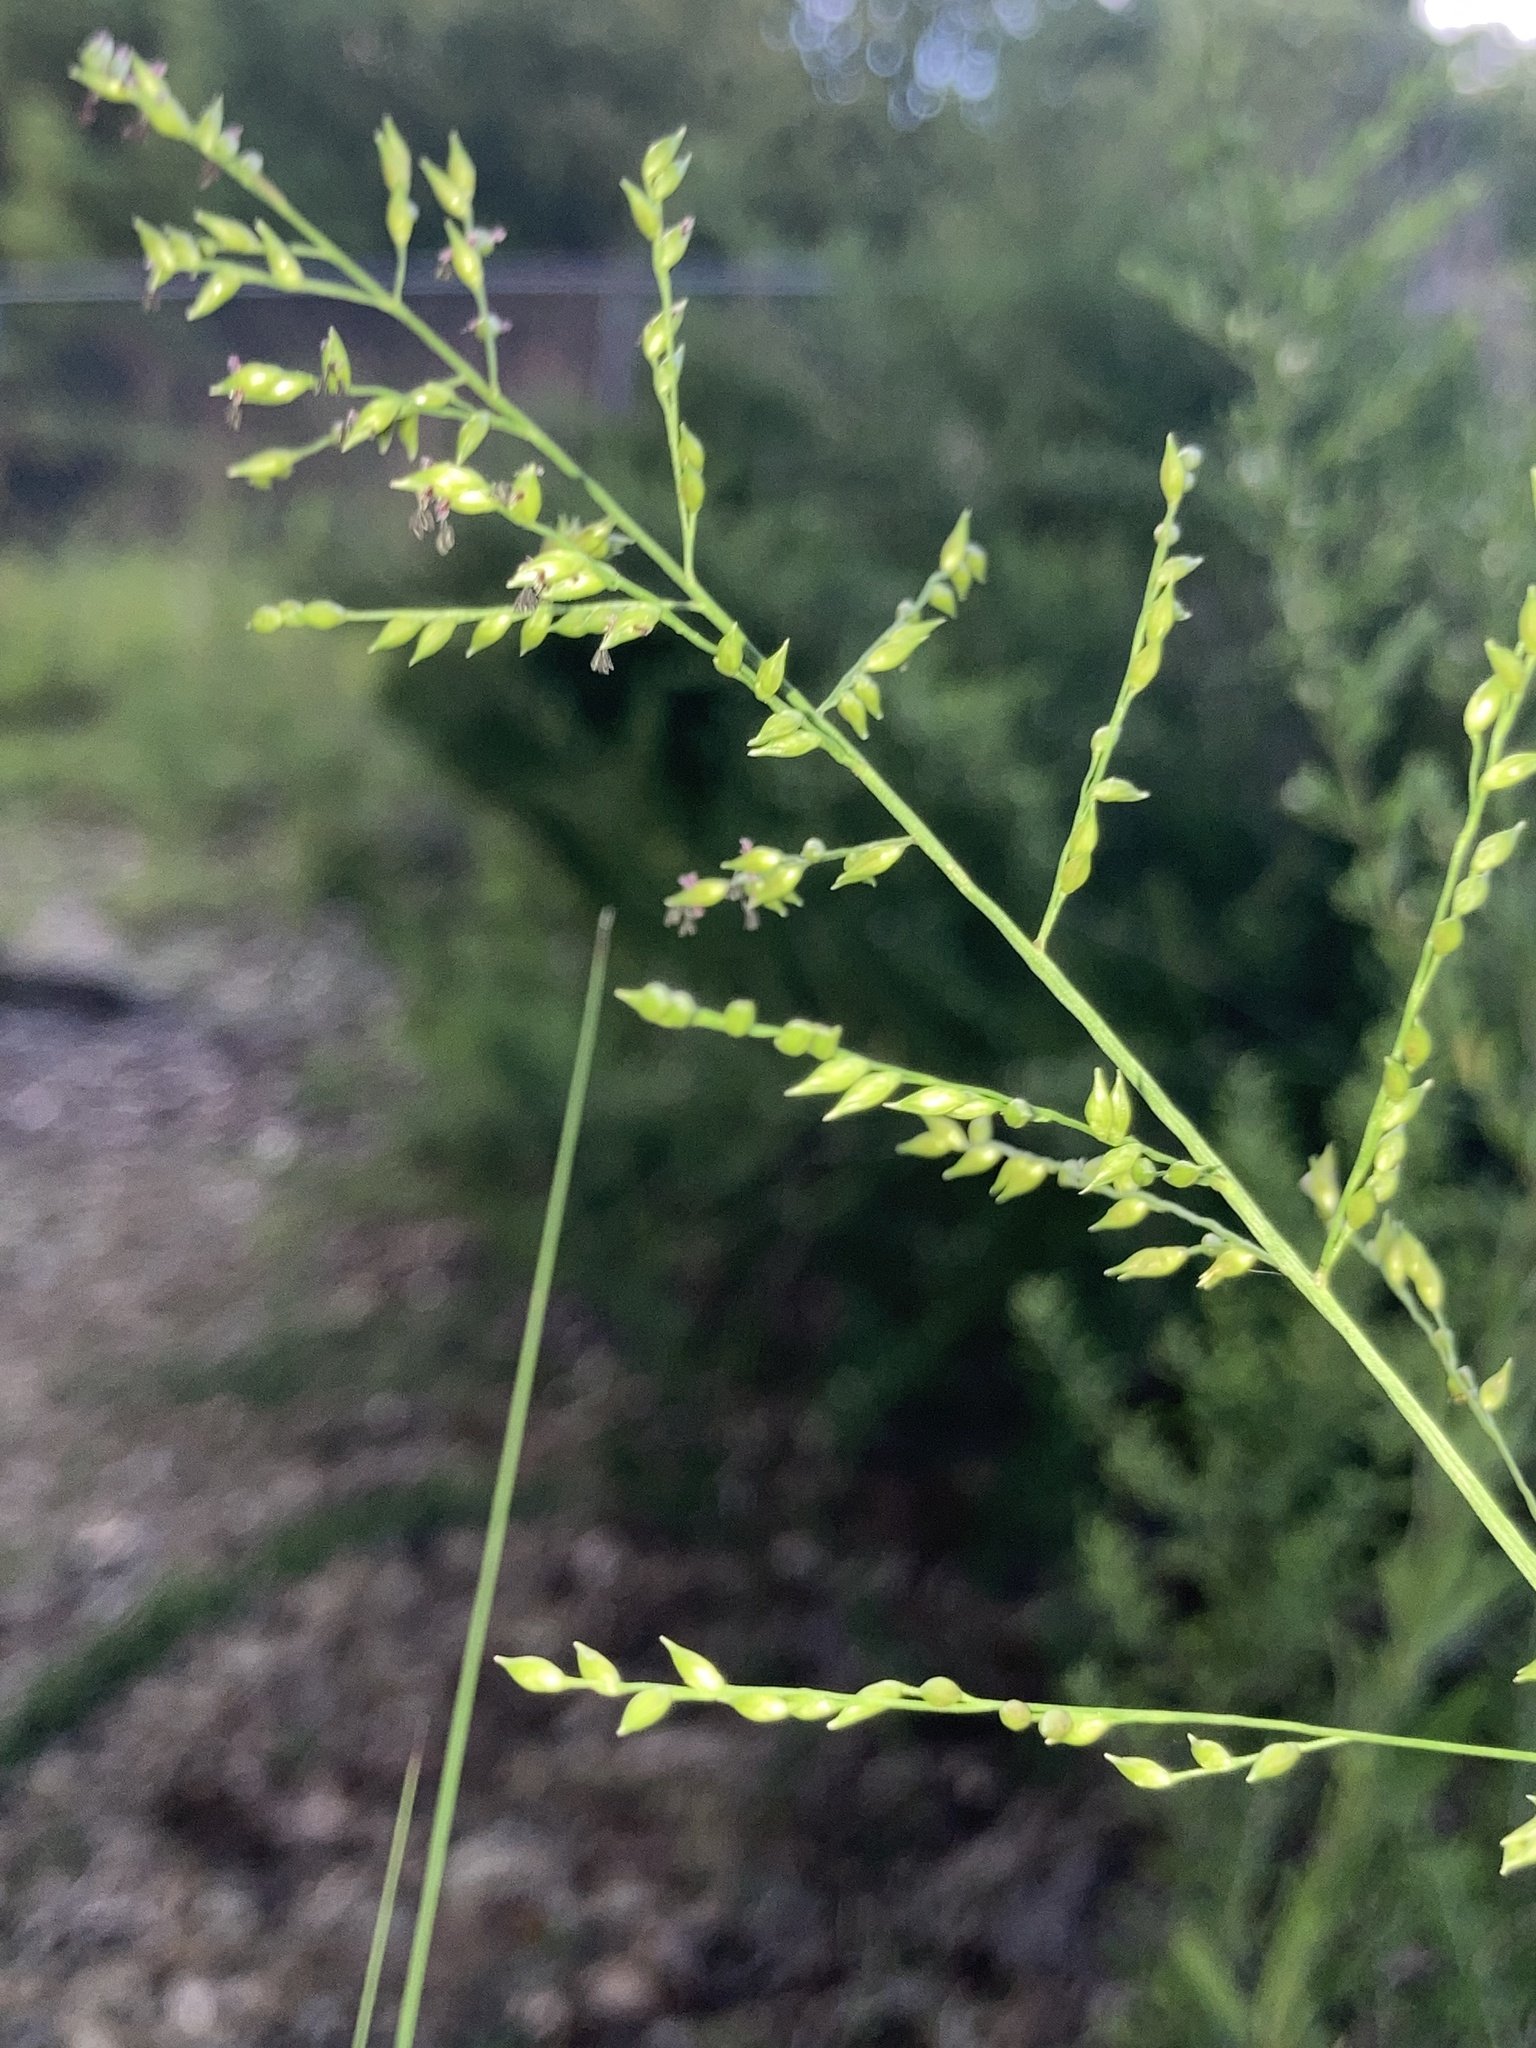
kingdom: Plantae
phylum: Tracheophyta
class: Liliopsida
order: Poales
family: Poaceae
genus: Coleataenia
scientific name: Coleataenia anceps
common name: Beaked panic grass
